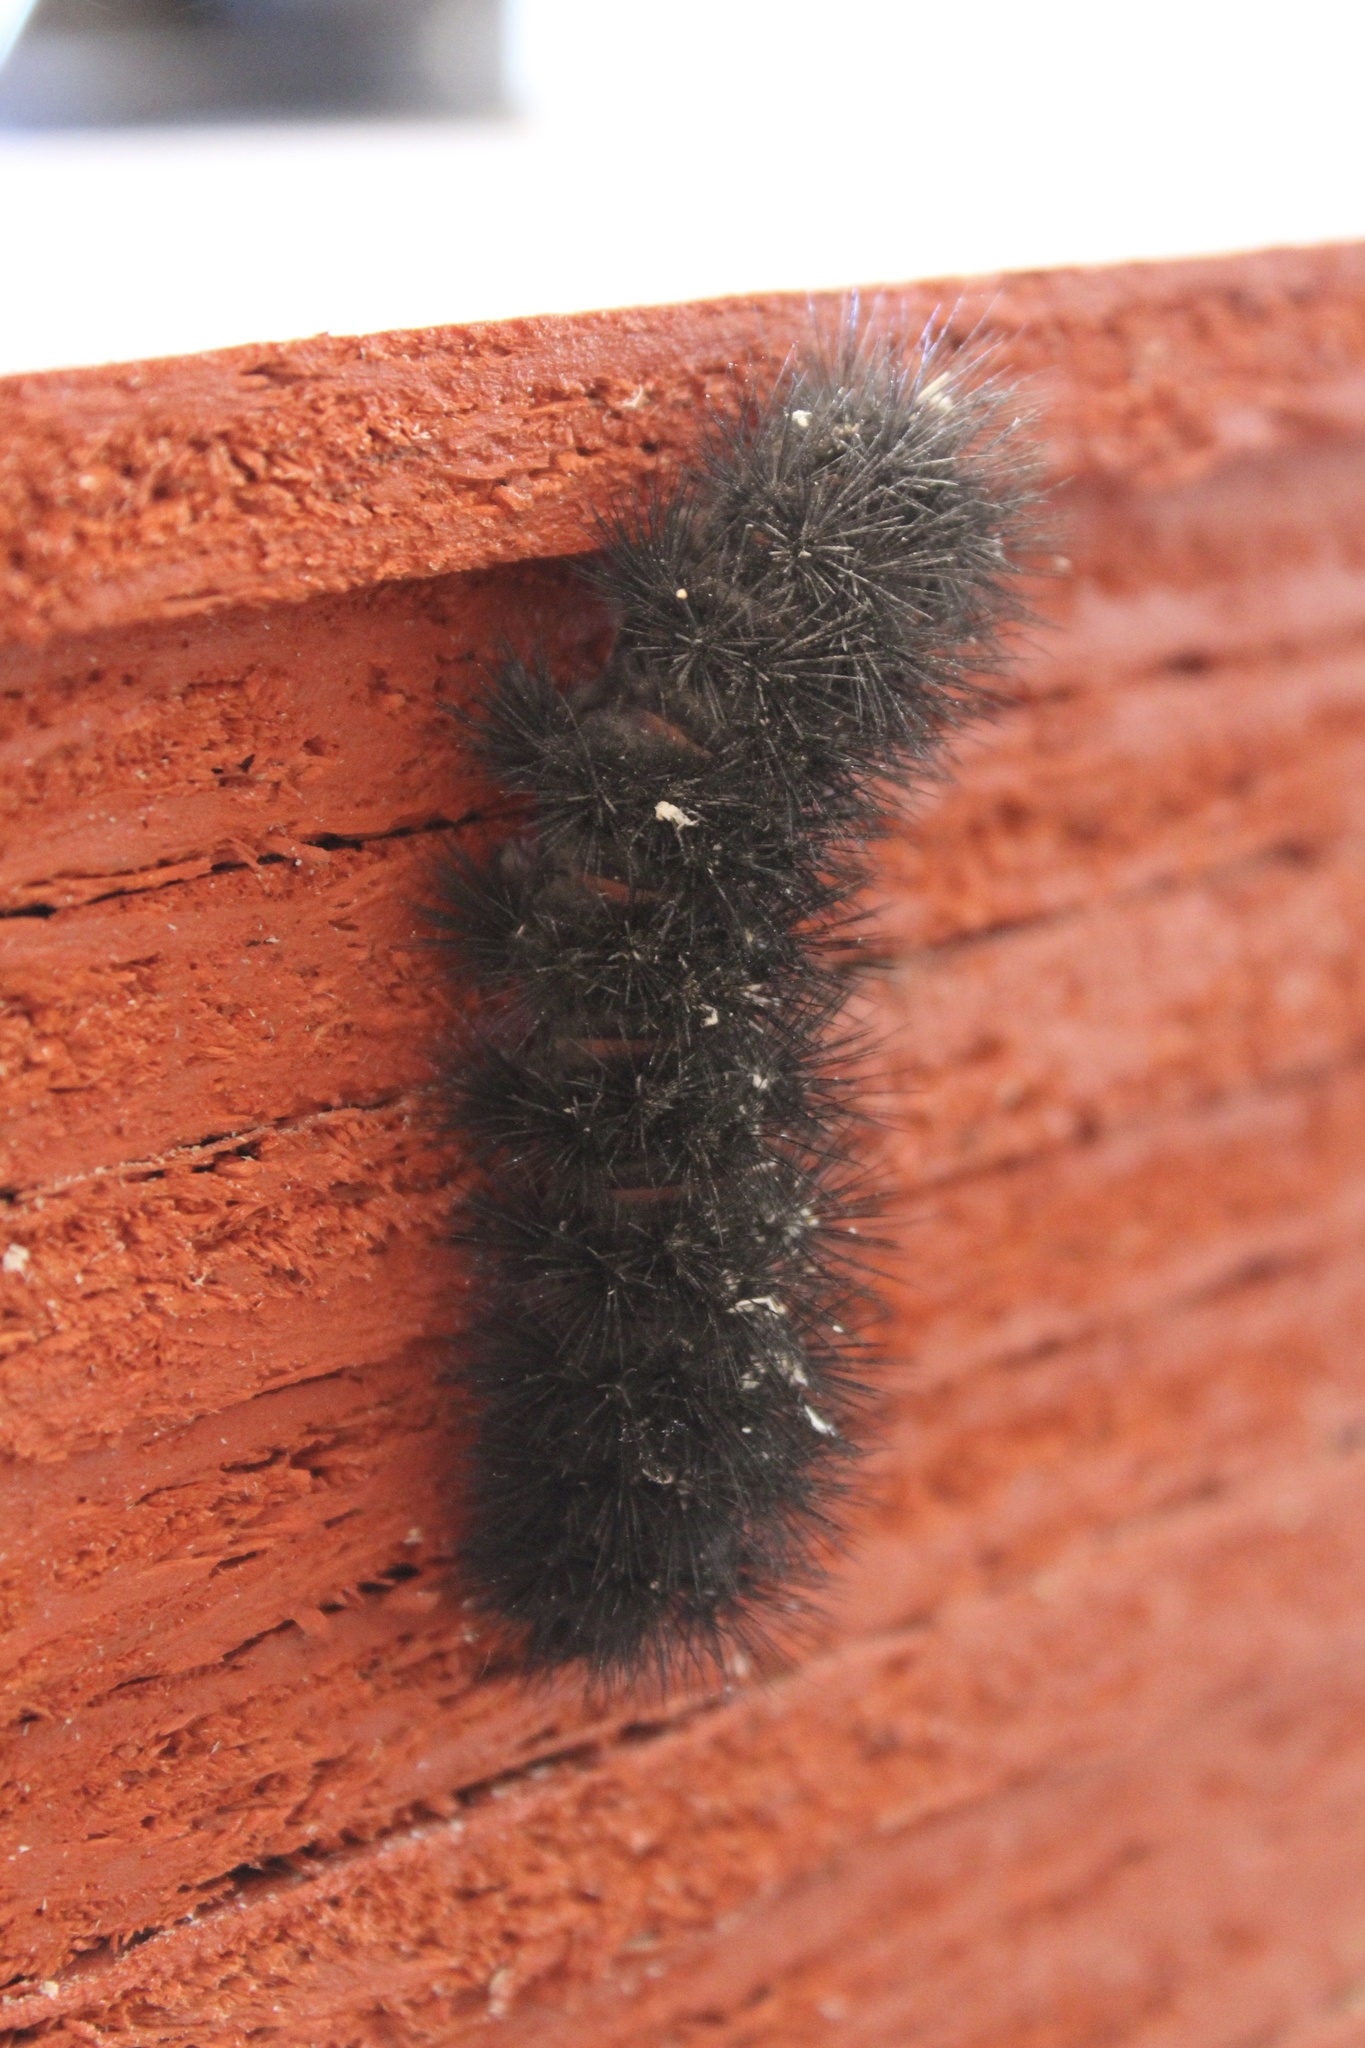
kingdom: Animalia
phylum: Arthropoda
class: Insecta
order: Lepidoptera
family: Erebidae
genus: Hypercompe
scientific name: Hypercompe scribonia
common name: Giant leopard moth
